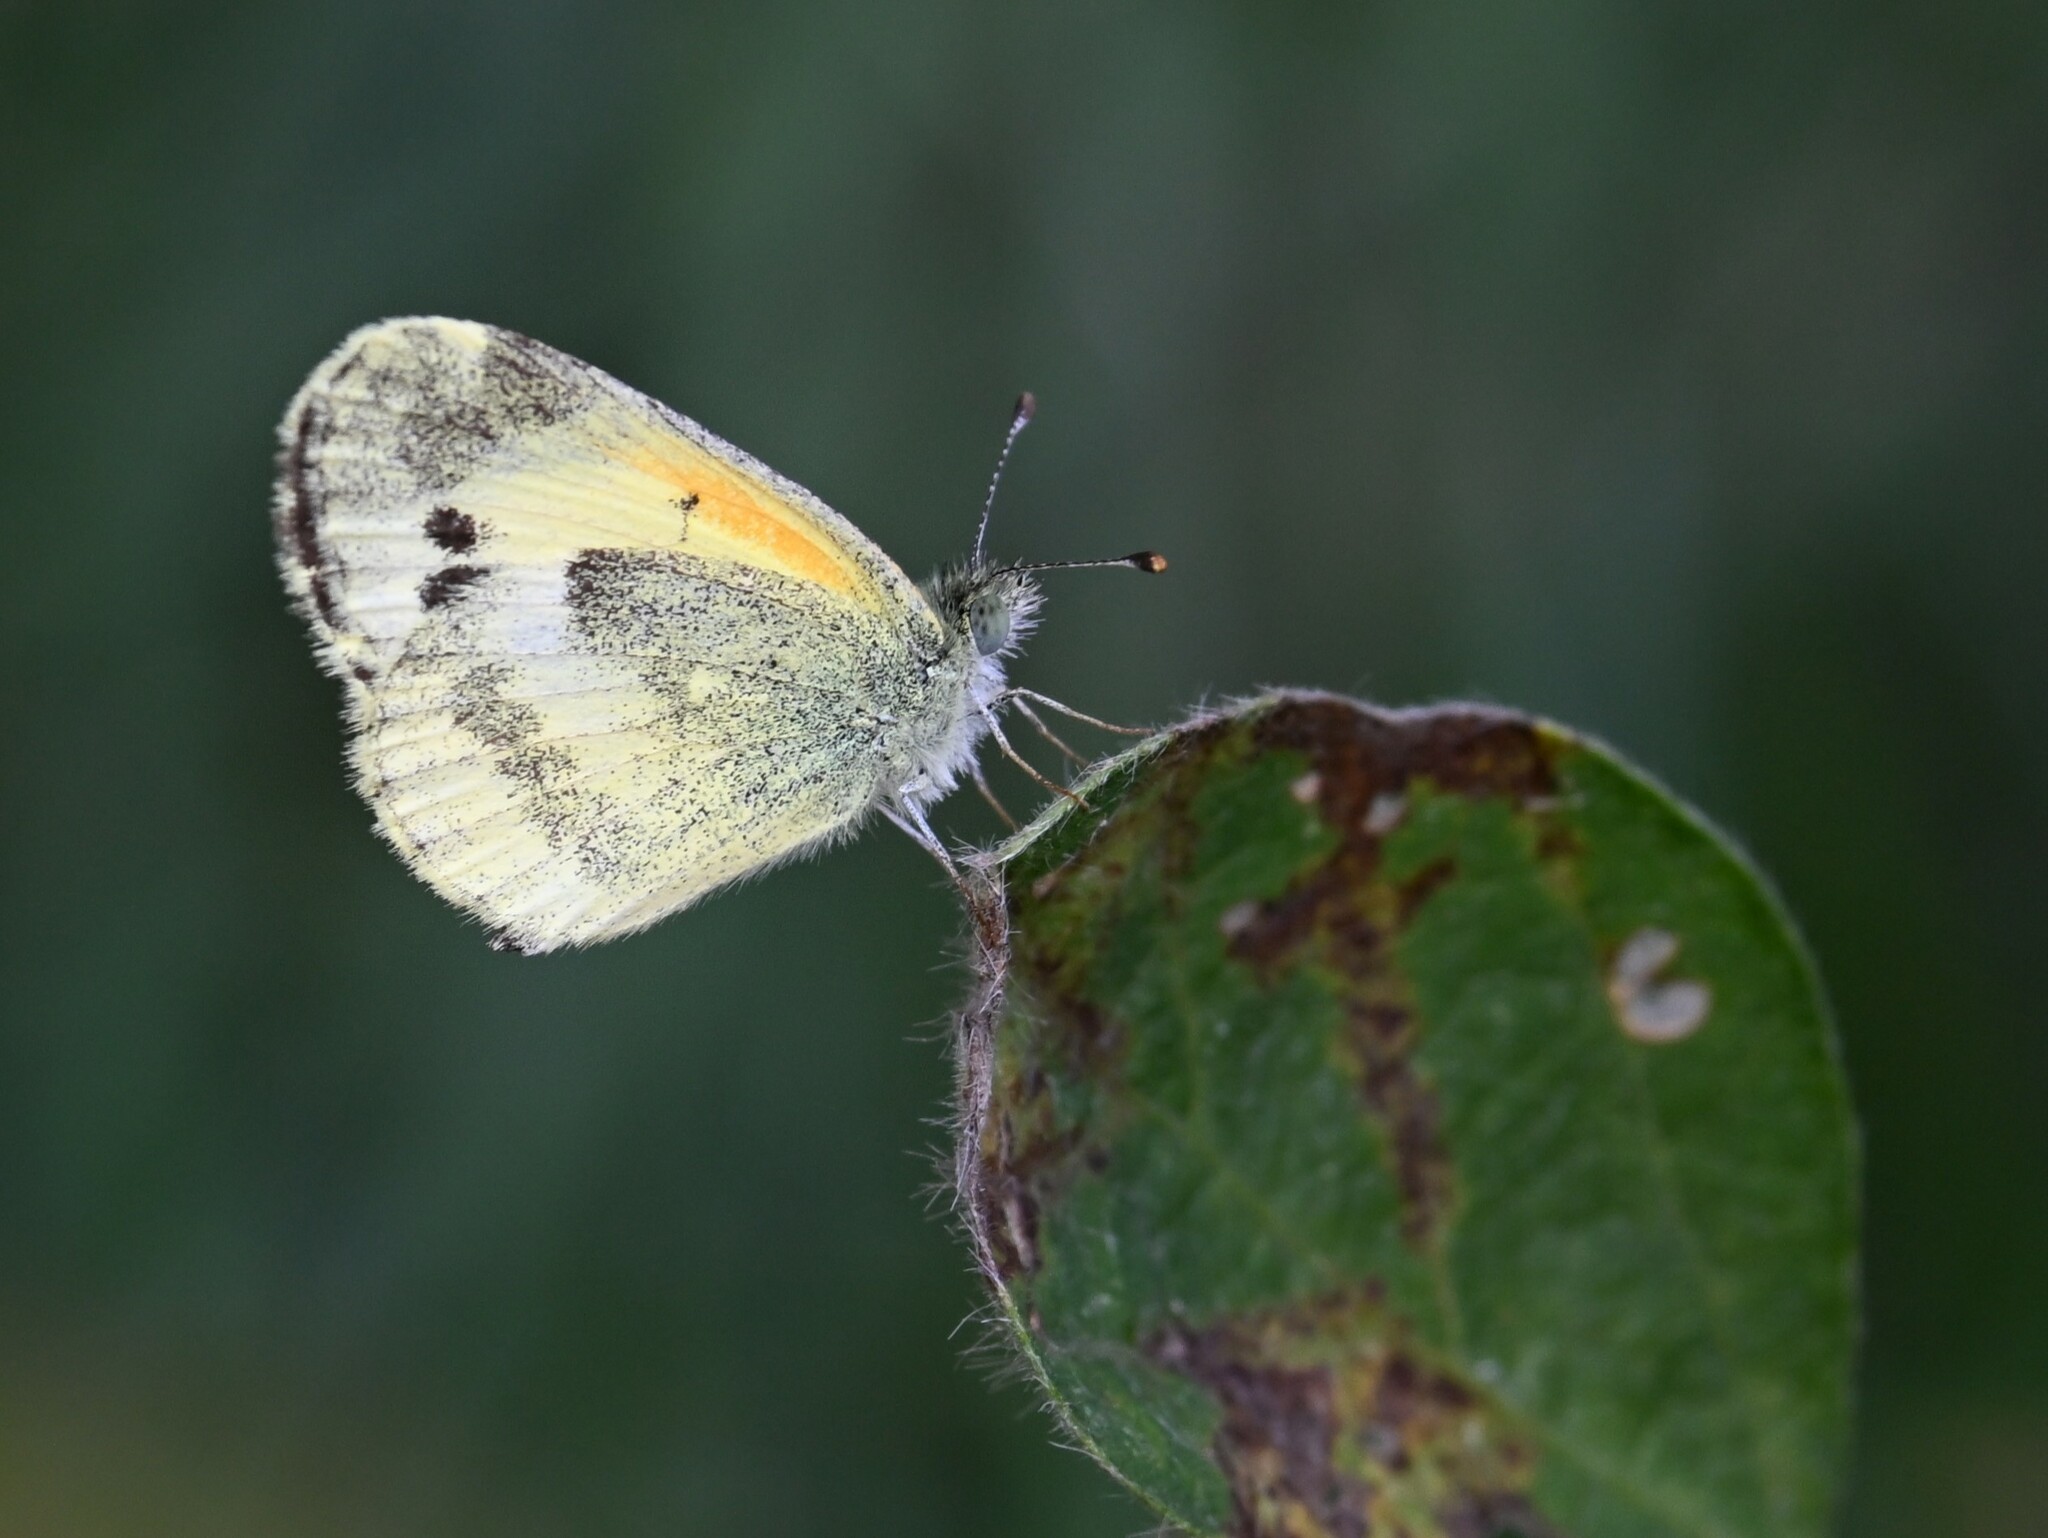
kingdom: Animalia
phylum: Arthropoda
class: Insecta
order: Lepidoptera
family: Pieridae
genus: Nathalis
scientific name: Nathalis iole
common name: Dainty sulphur
